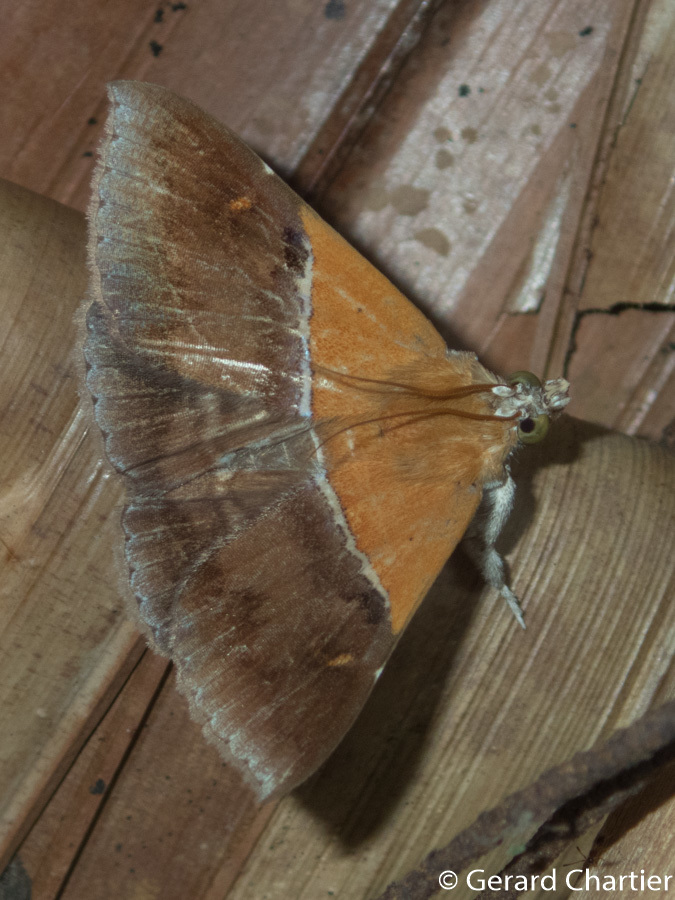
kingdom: Animalia
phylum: Arthropoda
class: Insecta
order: Lepidoptera
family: Erebidae
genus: Sympis
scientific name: Sympis rufibasis
